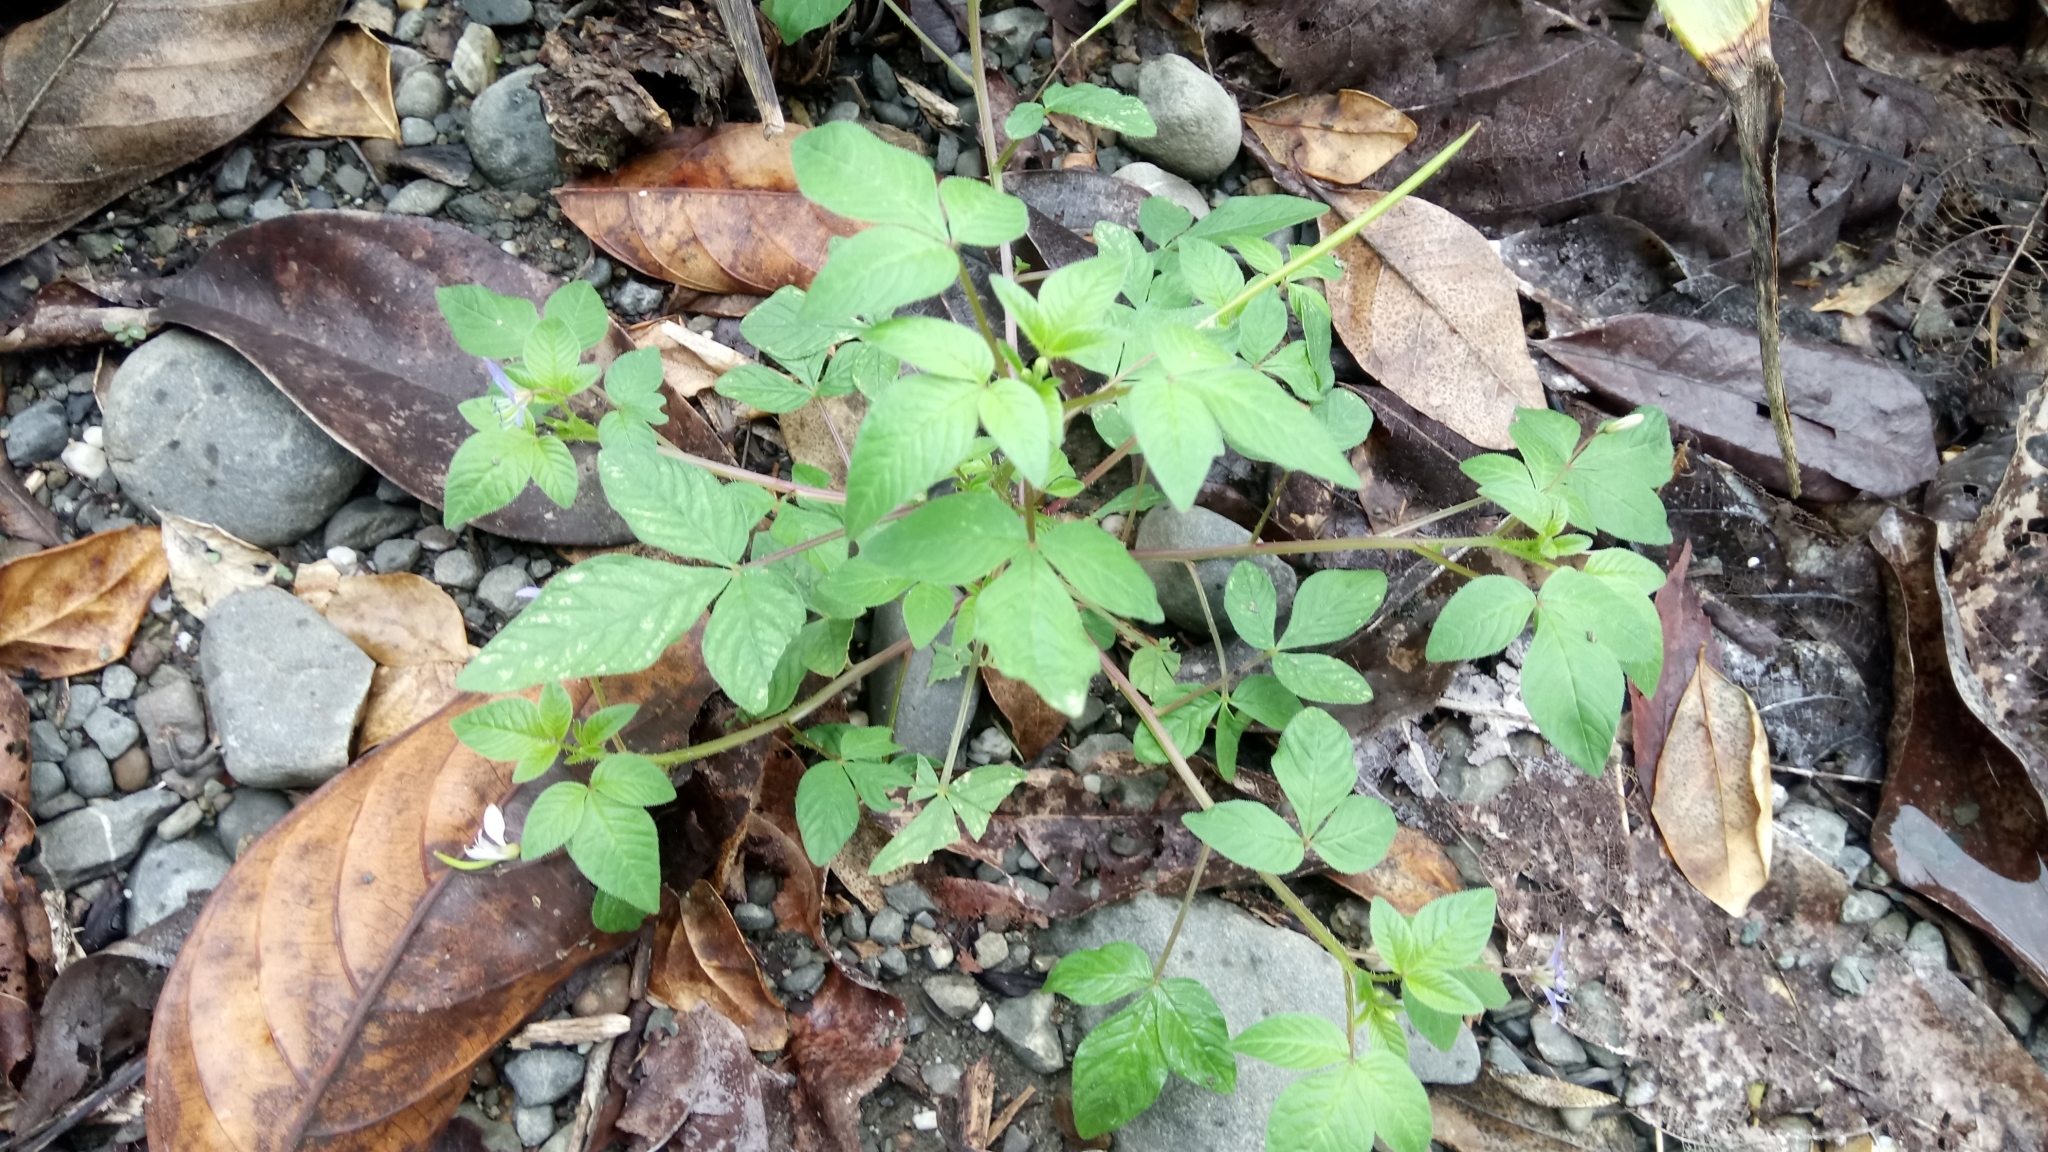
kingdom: Plantae
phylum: Tracheophyta
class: Magnoliopsida
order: Brassicales
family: Cleomaceae
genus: Sieruela
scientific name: Sieruela rutidosperma
